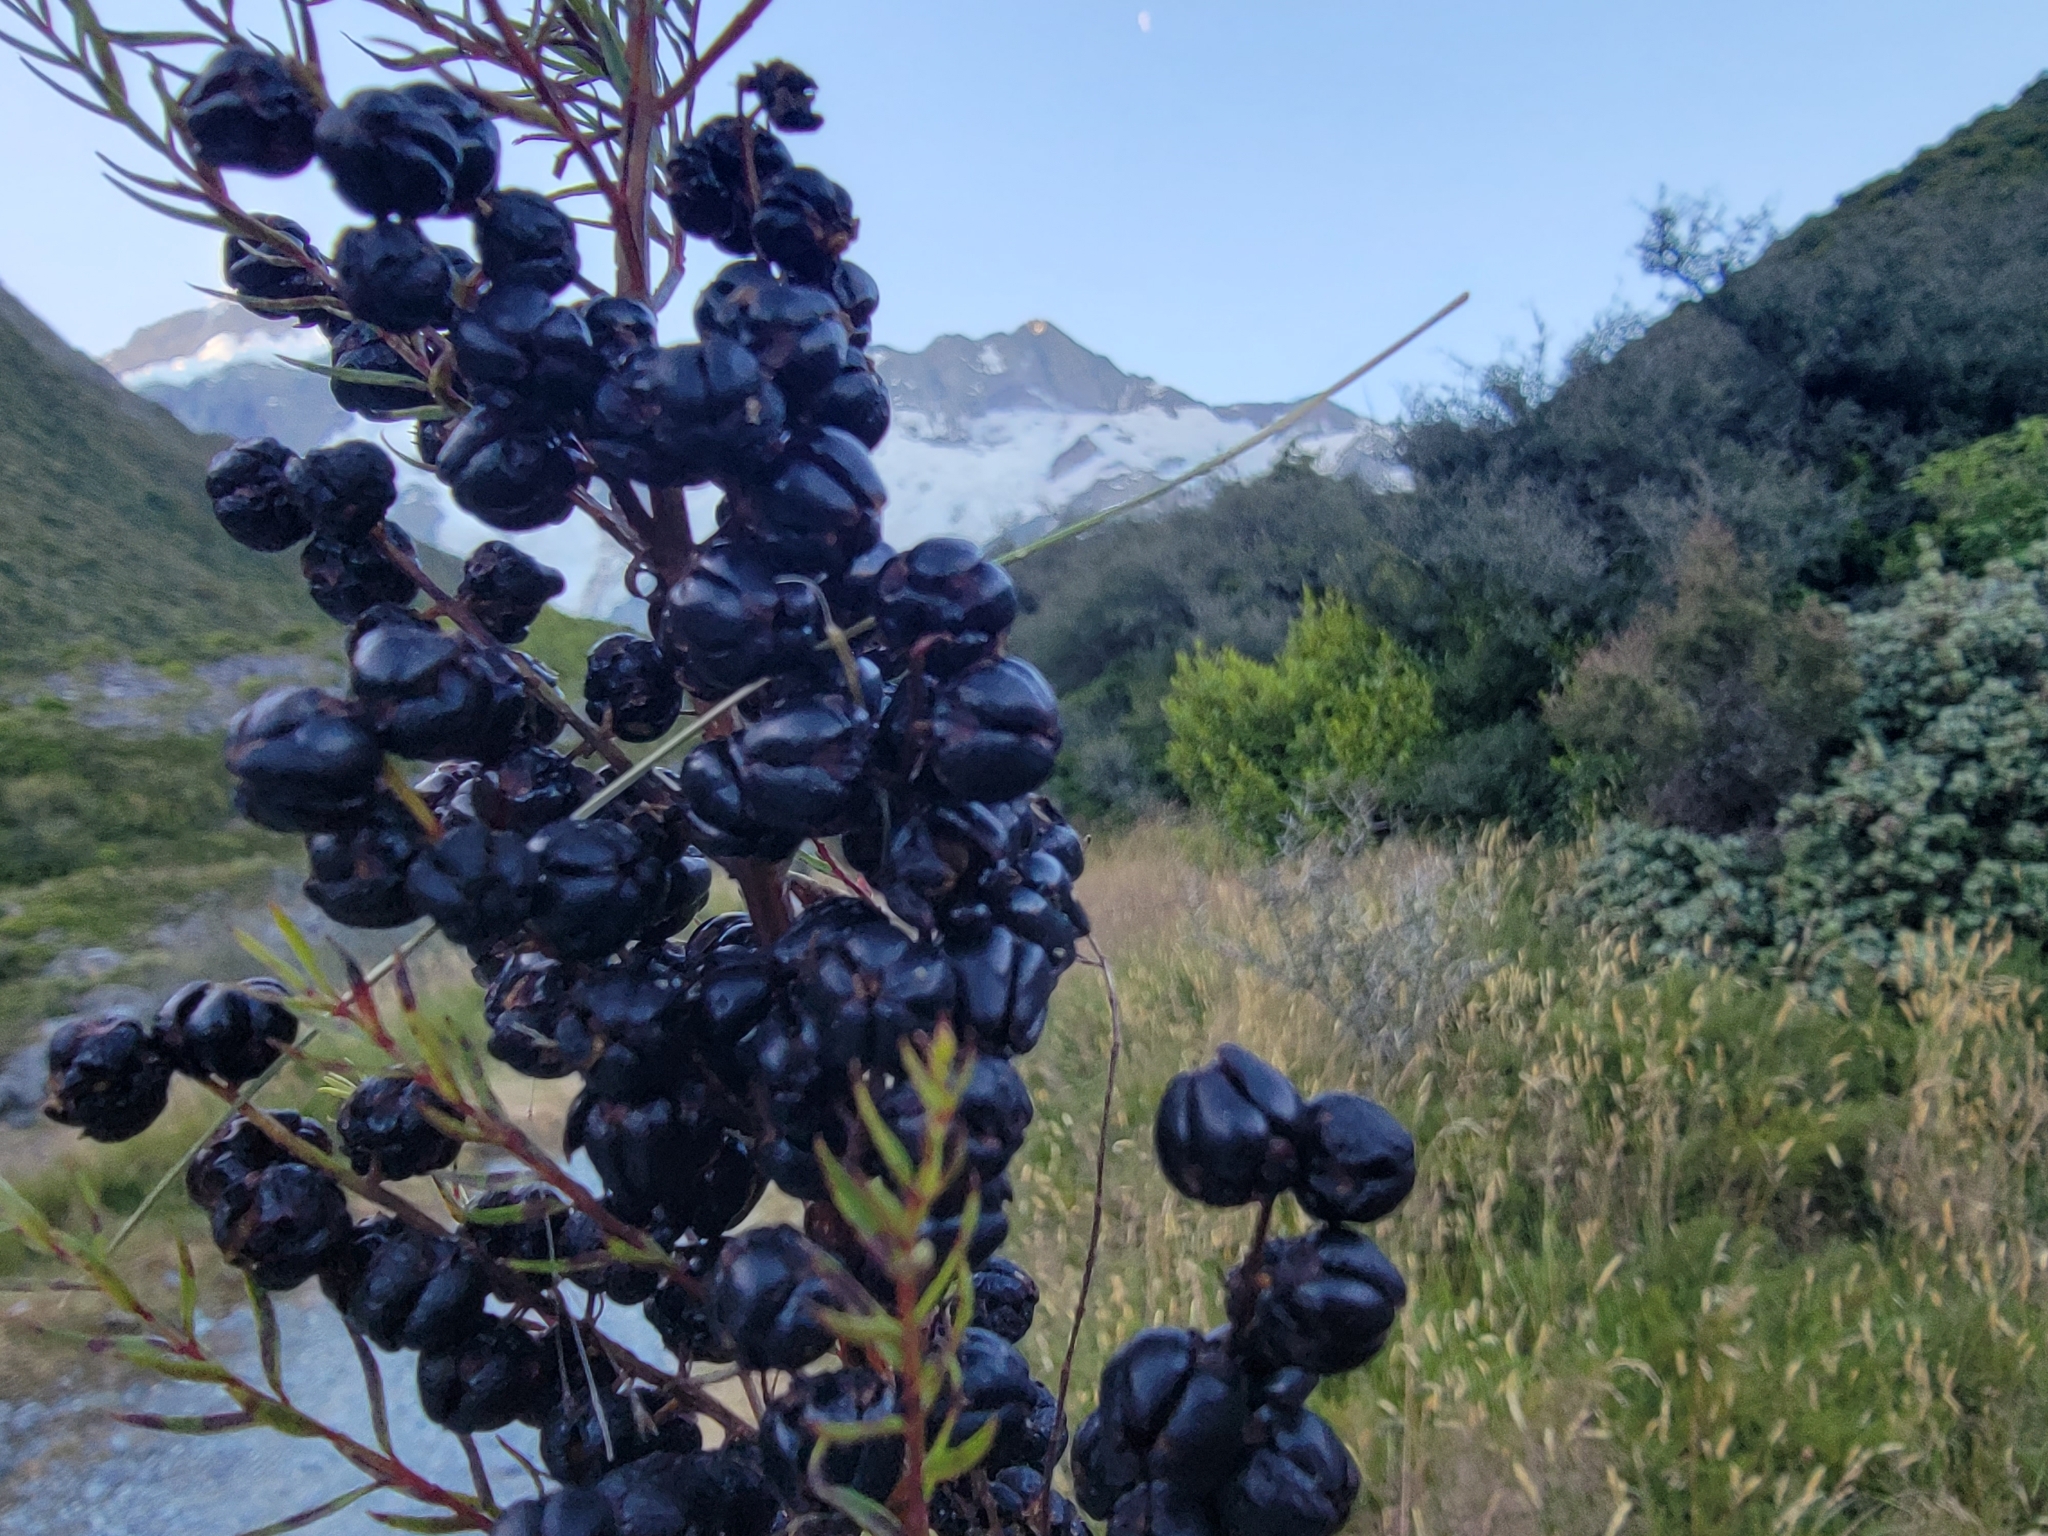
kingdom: Plantae
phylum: Tracheophyta
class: Magnoliopsida
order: Cucurbitales
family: Coriariaceae
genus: Coriaria
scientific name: Coriaria plumosa
